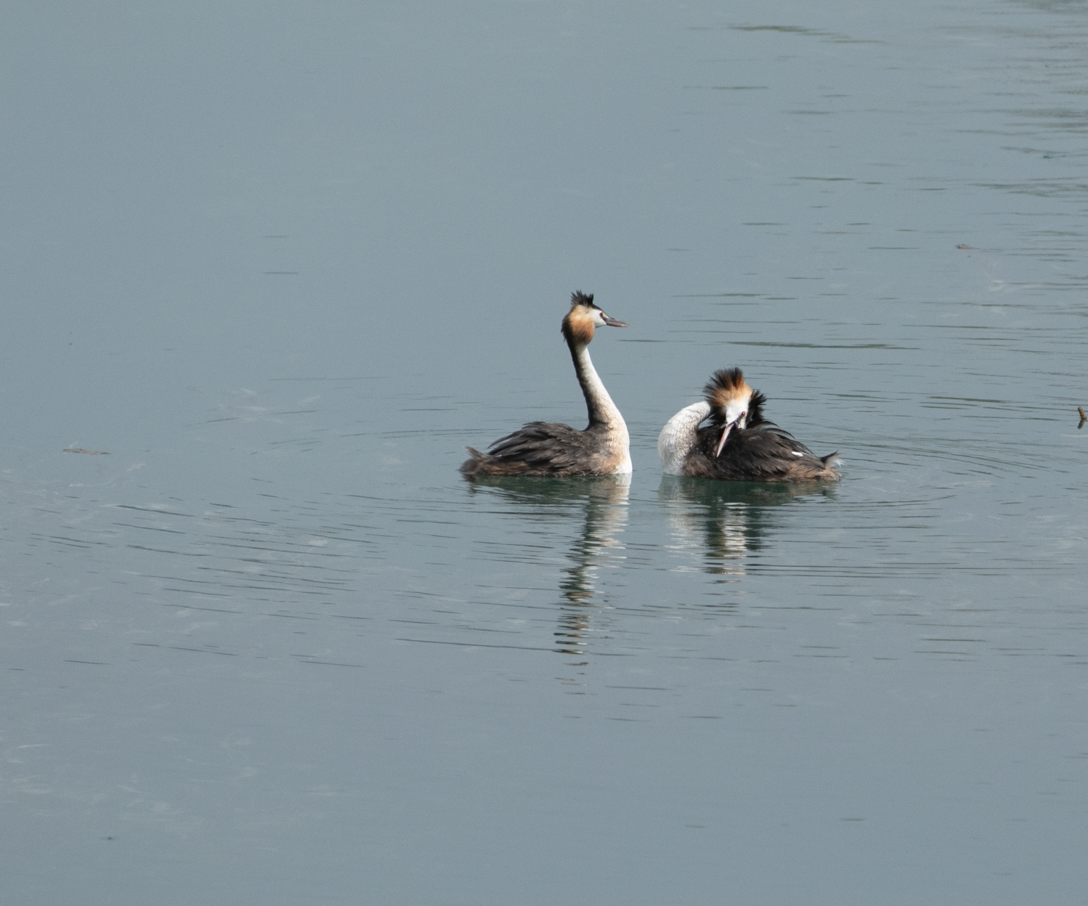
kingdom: Animalia
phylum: Chordata
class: Aves
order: Podicipediformes
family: Podicipedidae
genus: Podiceps
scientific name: Podiceps cristatus
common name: Great crested grebe
